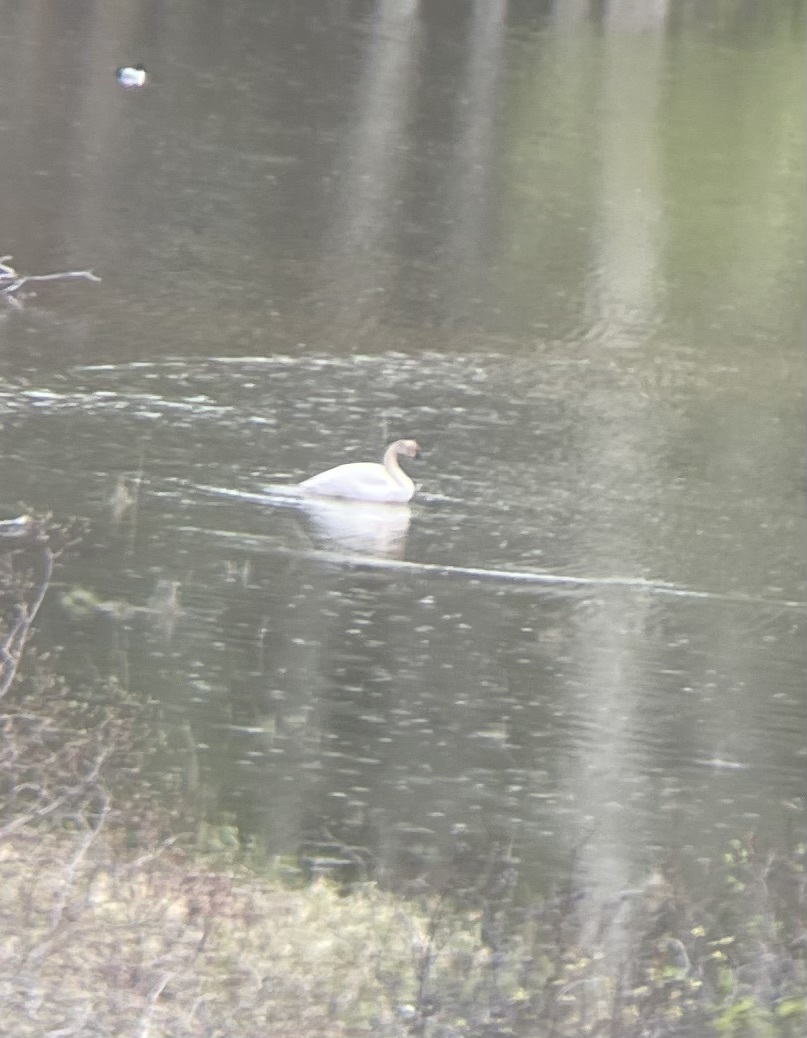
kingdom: Animalia
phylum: Chordata
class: Aves
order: Anseriformes
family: Anatidae
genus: Cygnus
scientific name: Cygnus buccinator
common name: Trumpeter swan
